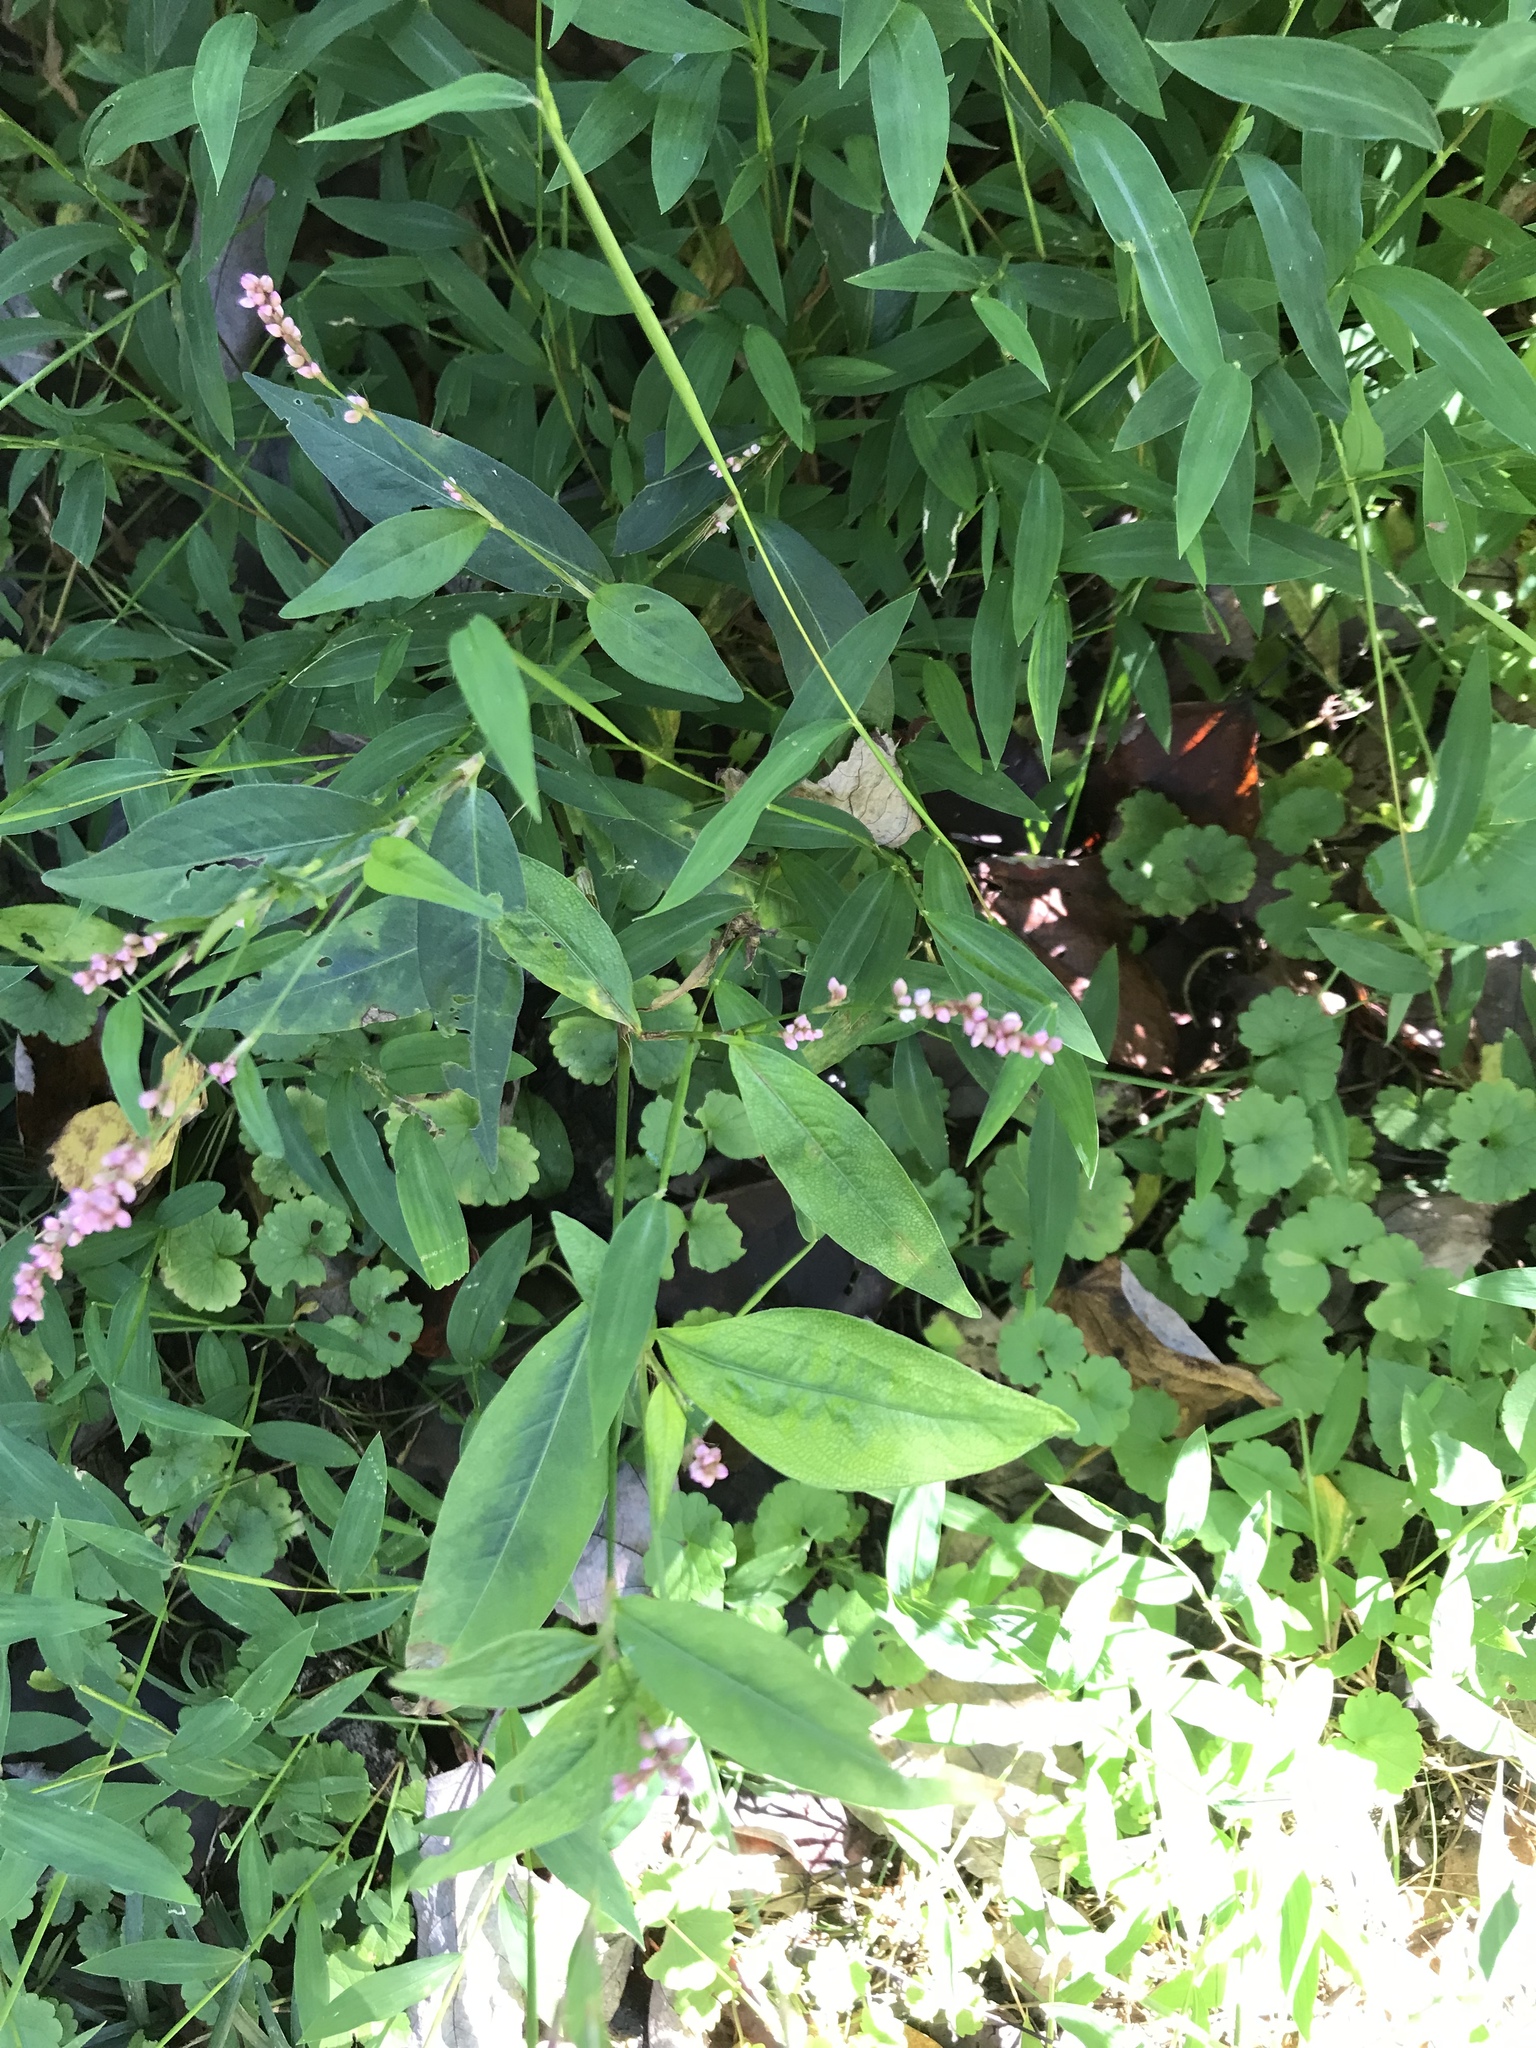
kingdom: Plantae
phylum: Tracheophyta
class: Magnoliopsida
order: Caryophyllales
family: Polygonaceae
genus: Persicaria
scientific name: Persicaria longiseta
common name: Bristly lady's-thumb
